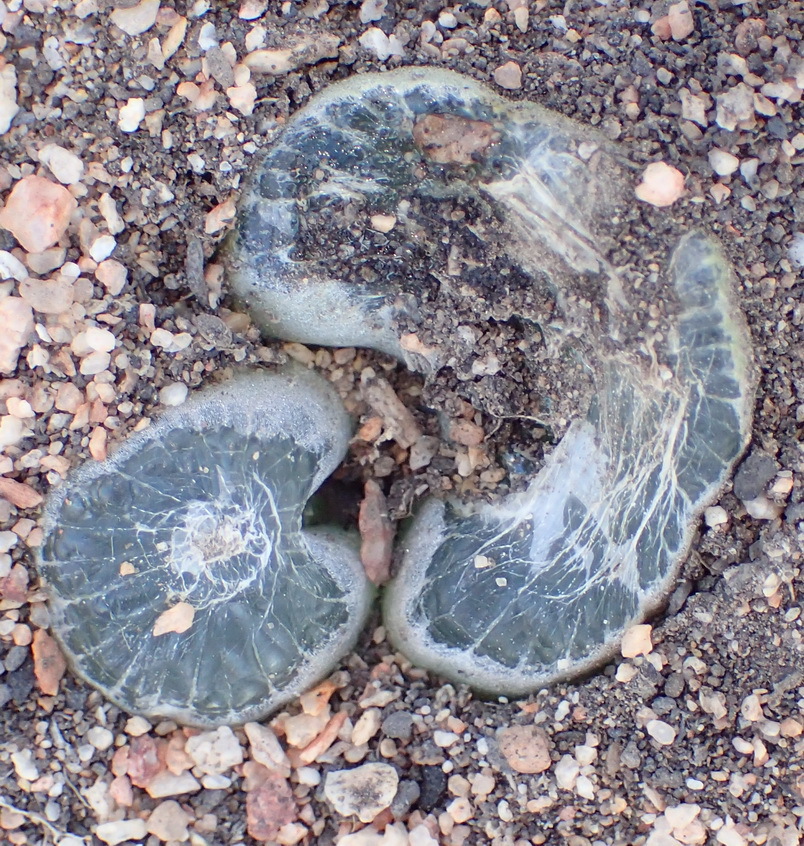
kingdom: Plantae
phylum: Tracheophyta
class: Liliopsida
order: Asparagales
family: Asphodelaceae
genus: Bulbine
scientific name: Bulbine mesembryanthoides
